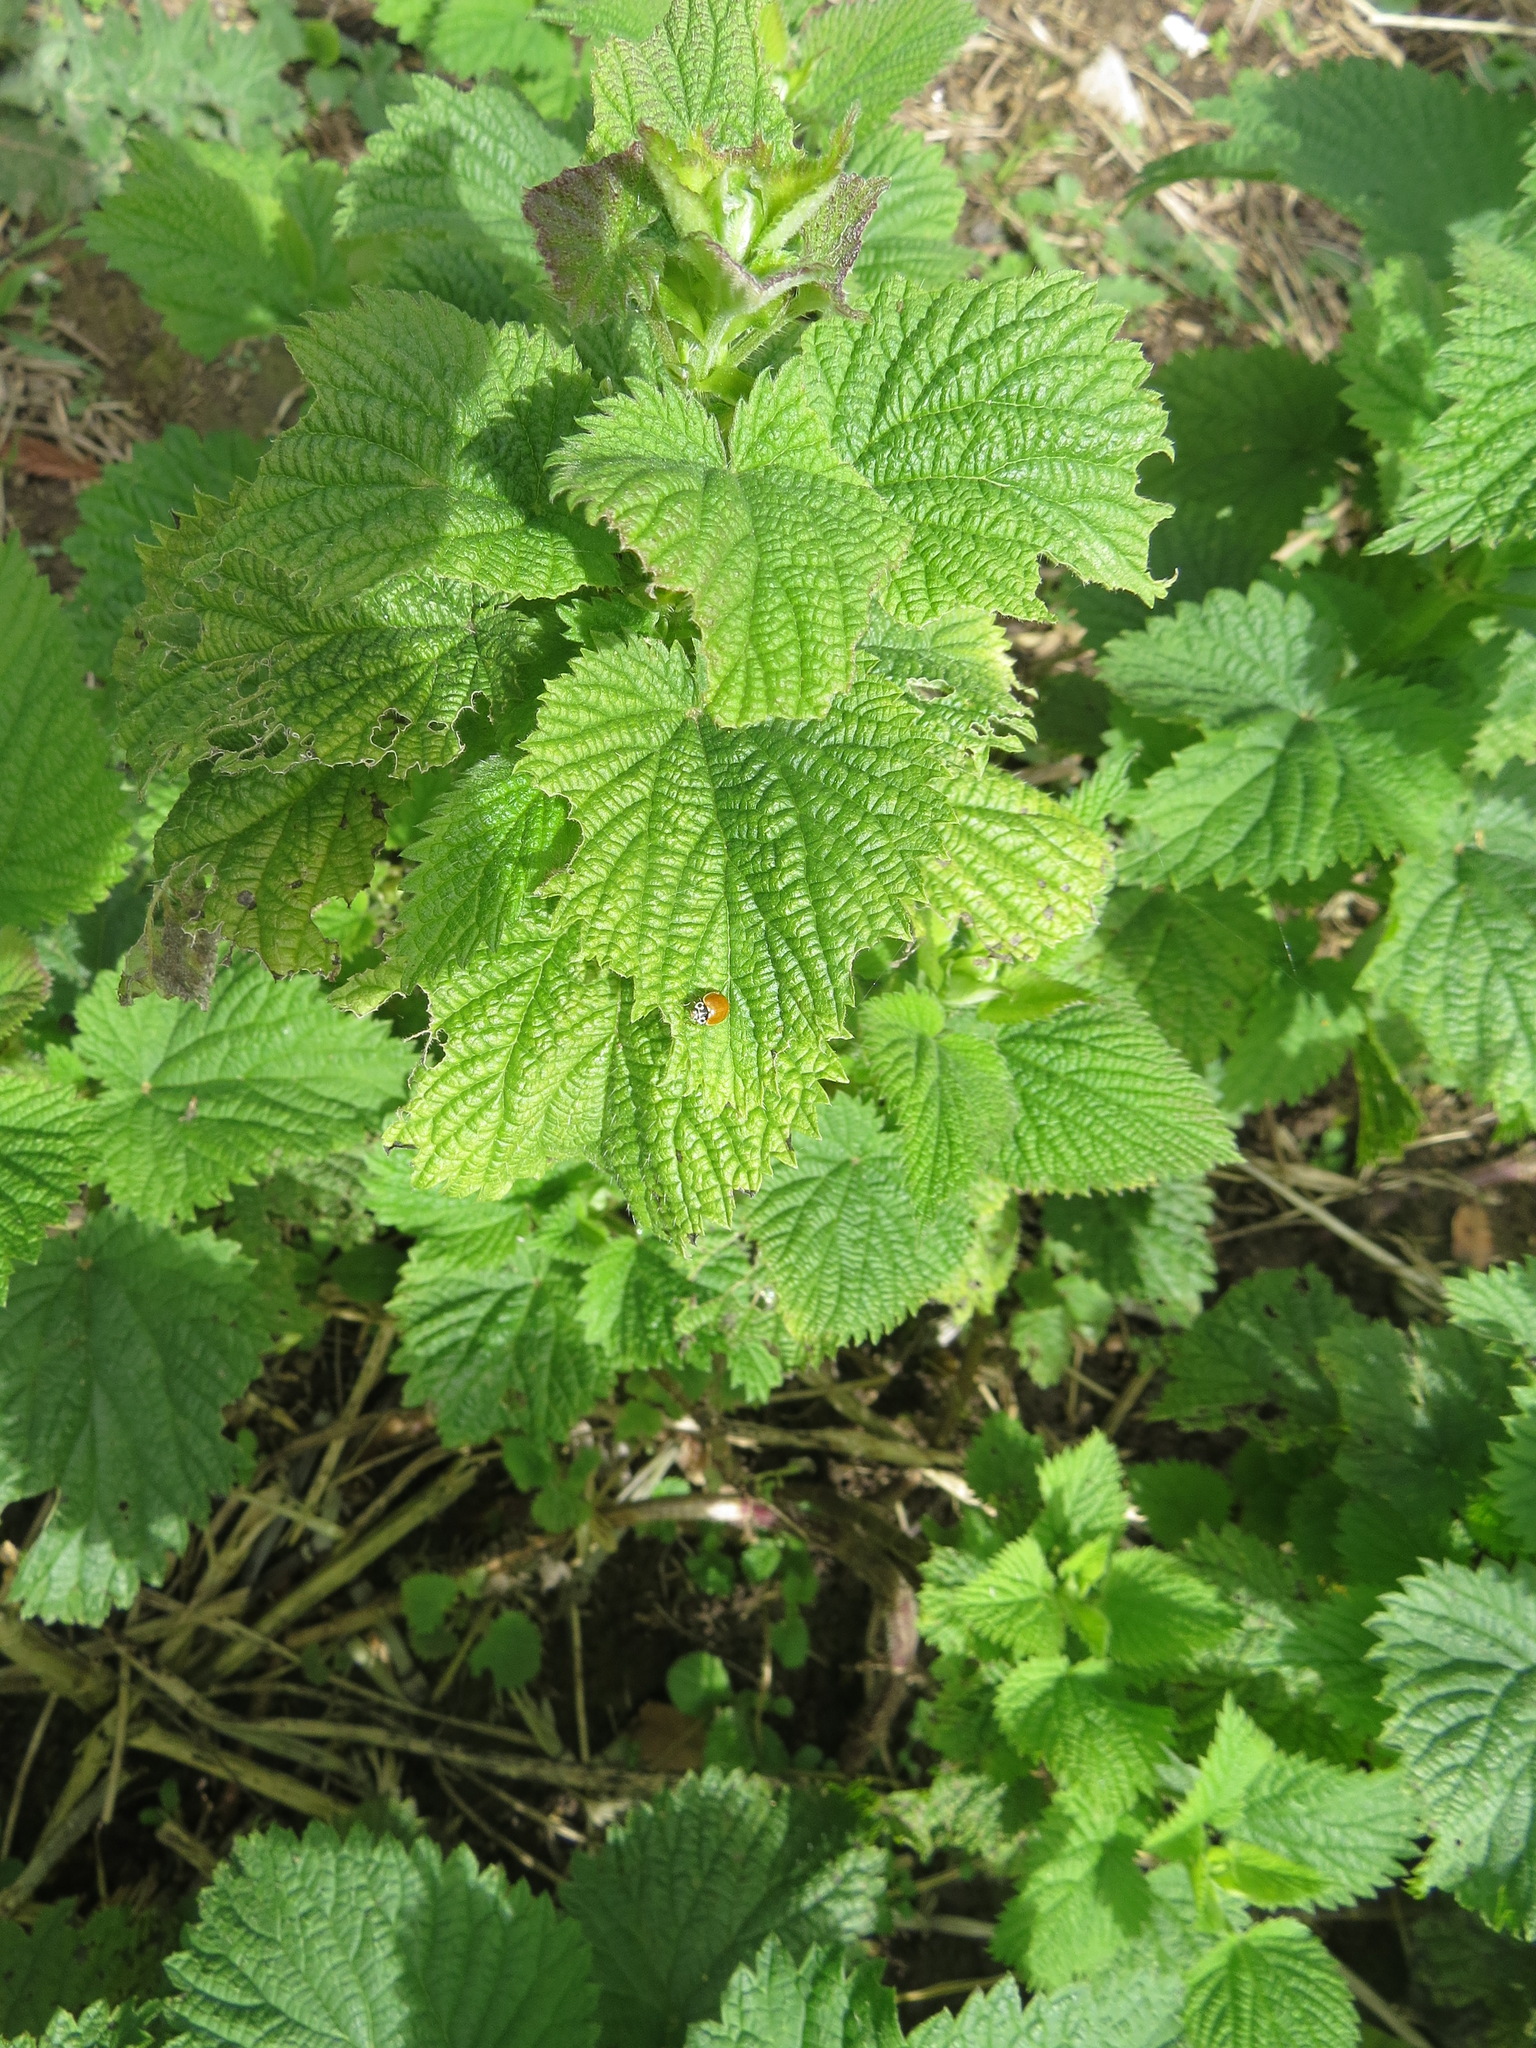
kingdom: Animalia
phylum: Arthropoda
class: Insecta
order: Coleoptera
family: Coccinellidae
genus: Cycloneda
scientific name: Cycloneda polita
